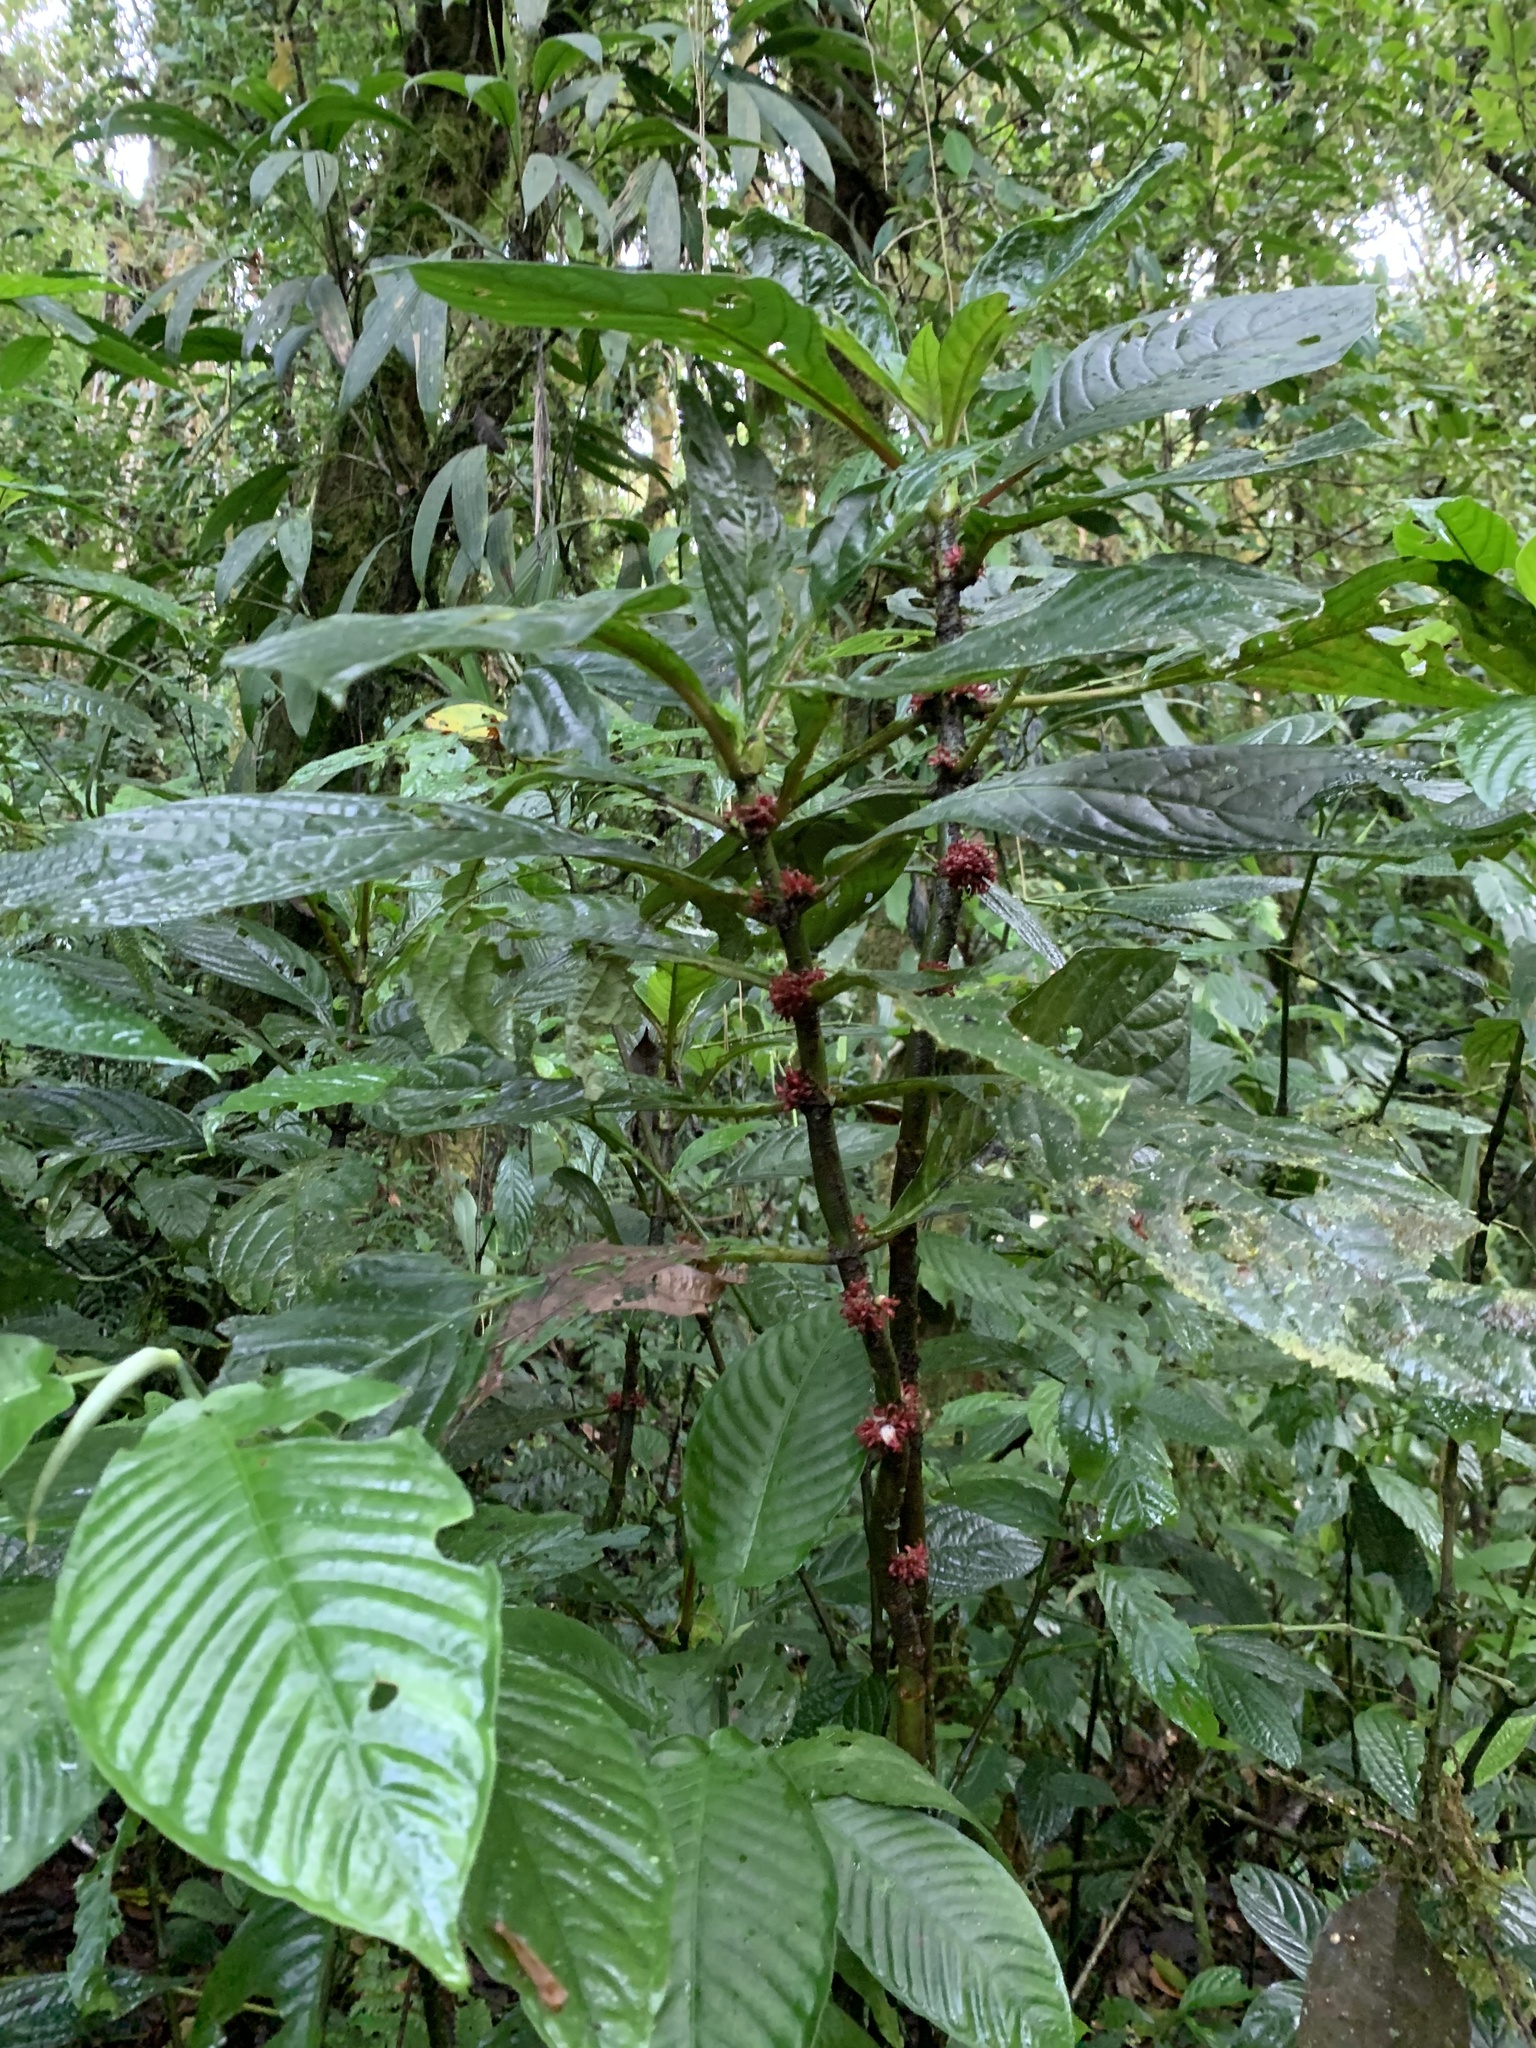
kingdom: Plantae
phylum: Tracheophyta
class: Magnoliopsida
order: Gentianales
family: Rubiaceae
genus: Hoffmannia
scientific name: Hoffmannia congesta
